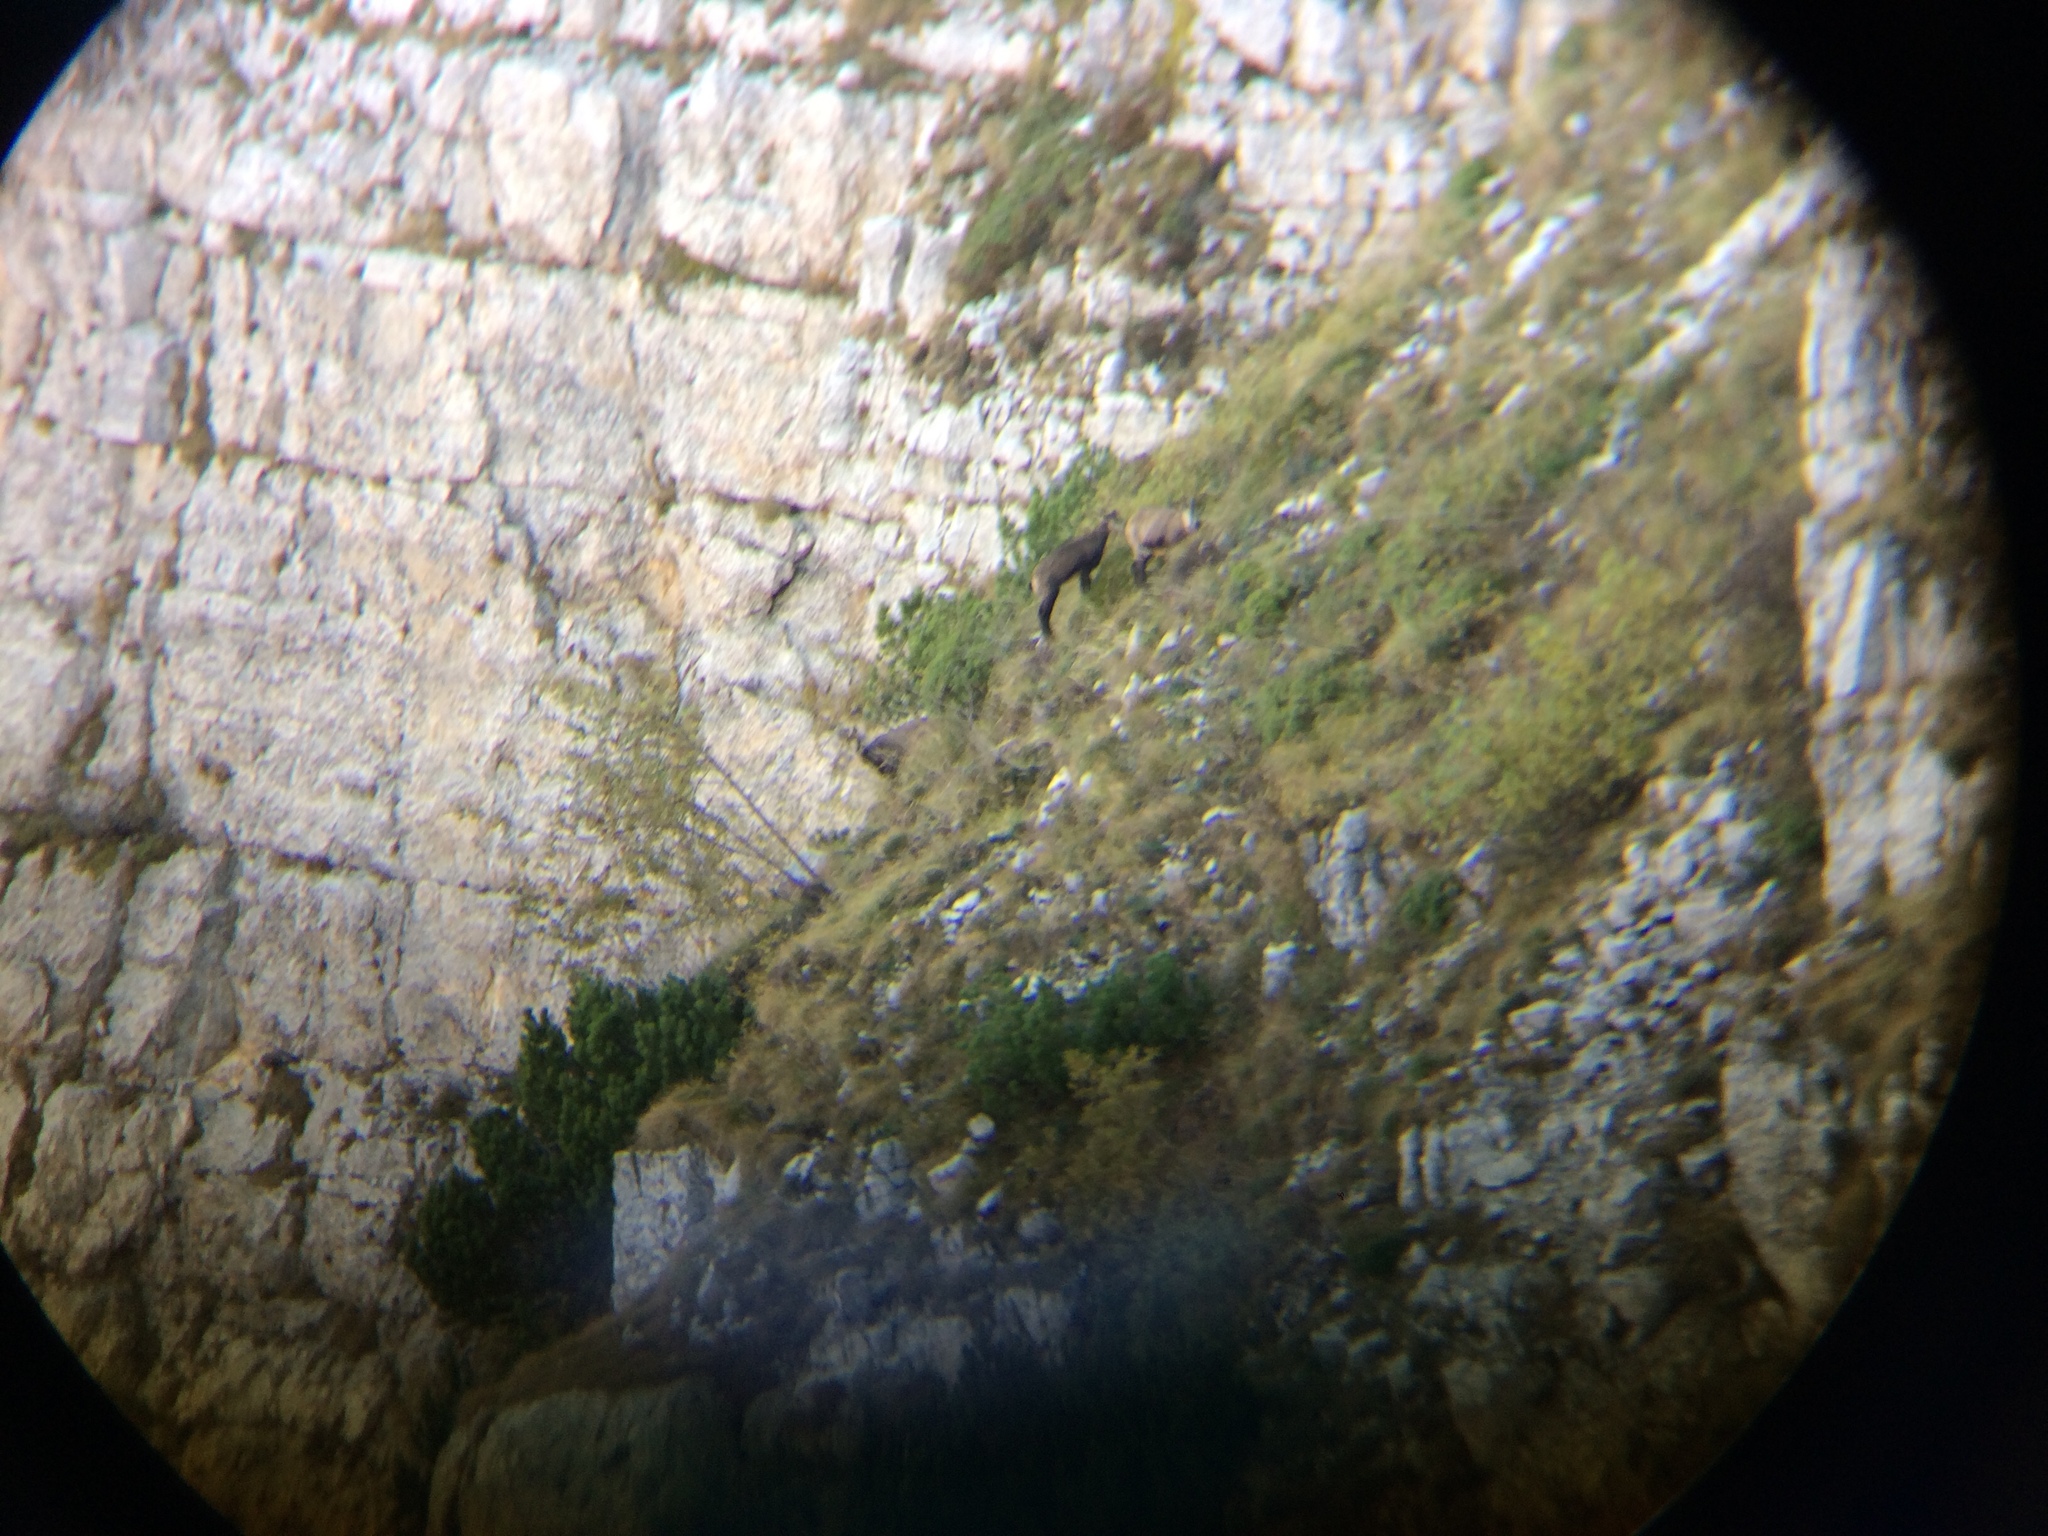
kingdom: Animalia
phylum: Chordata
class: Mammalia
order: Artiodactyla
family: Bovidae
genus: Rupicapra
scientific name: Rupicapra rupicapra
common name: Chamois
